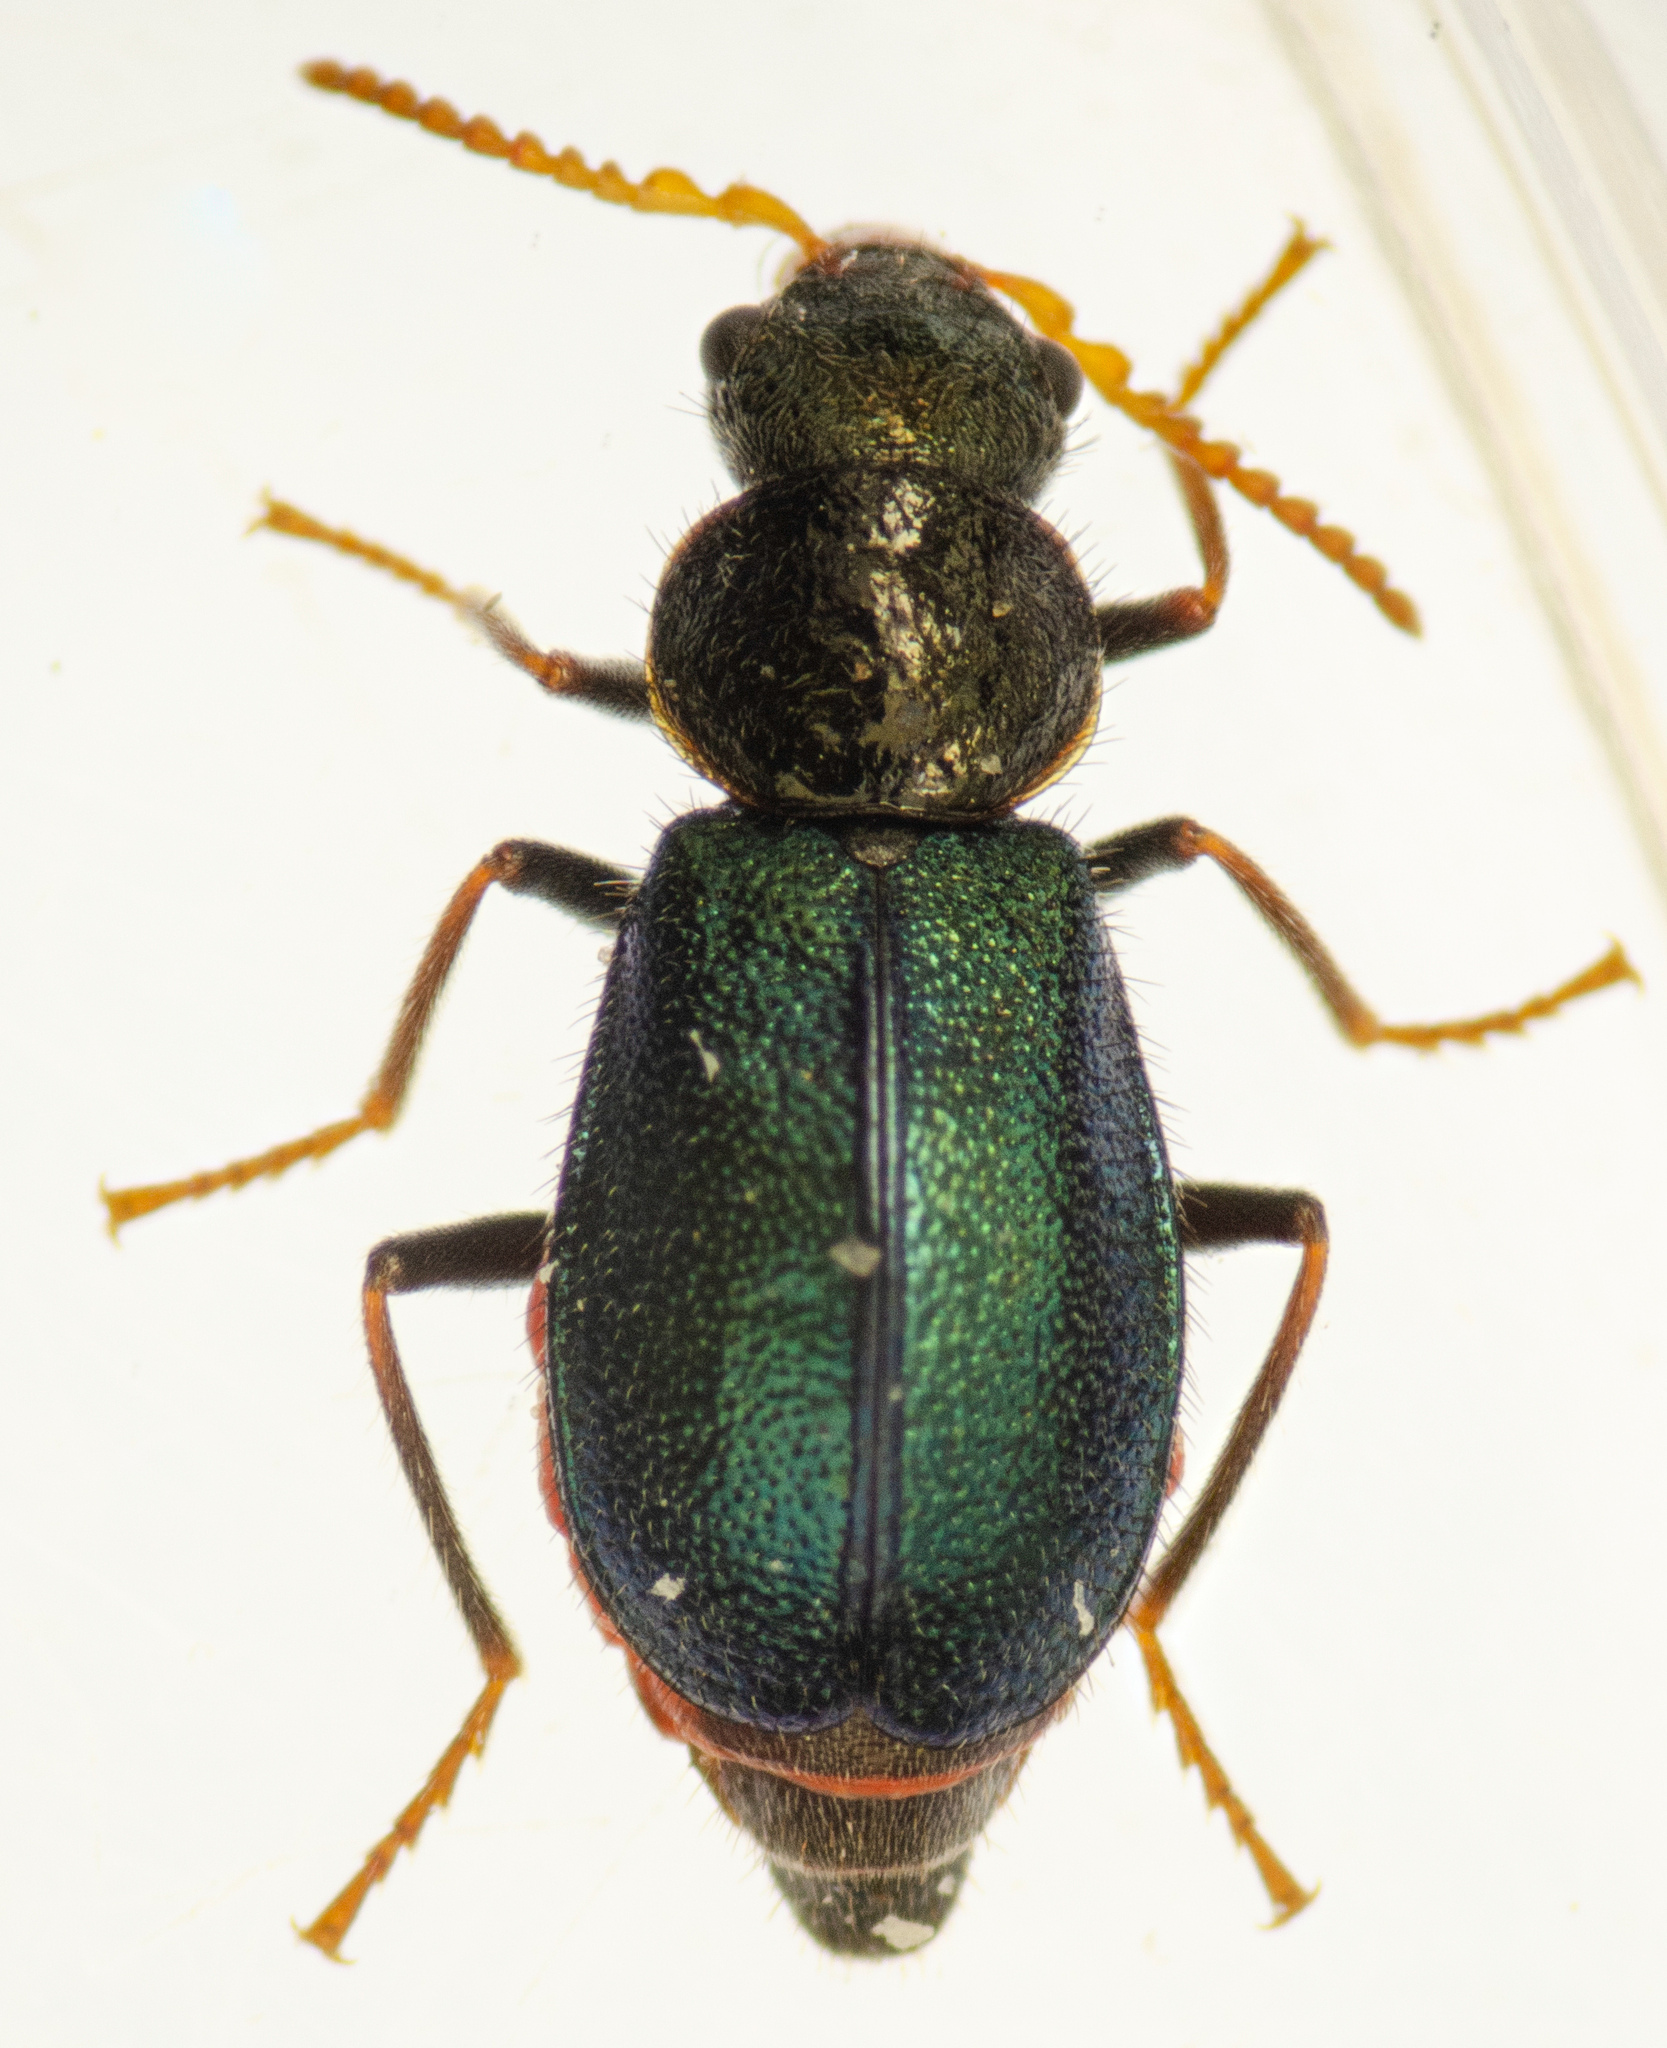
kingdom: Animalia
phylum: Arthropoda
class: Insecta
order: Coleoptera
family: Melyridae
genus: Collops
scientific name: Collops cribrosus
